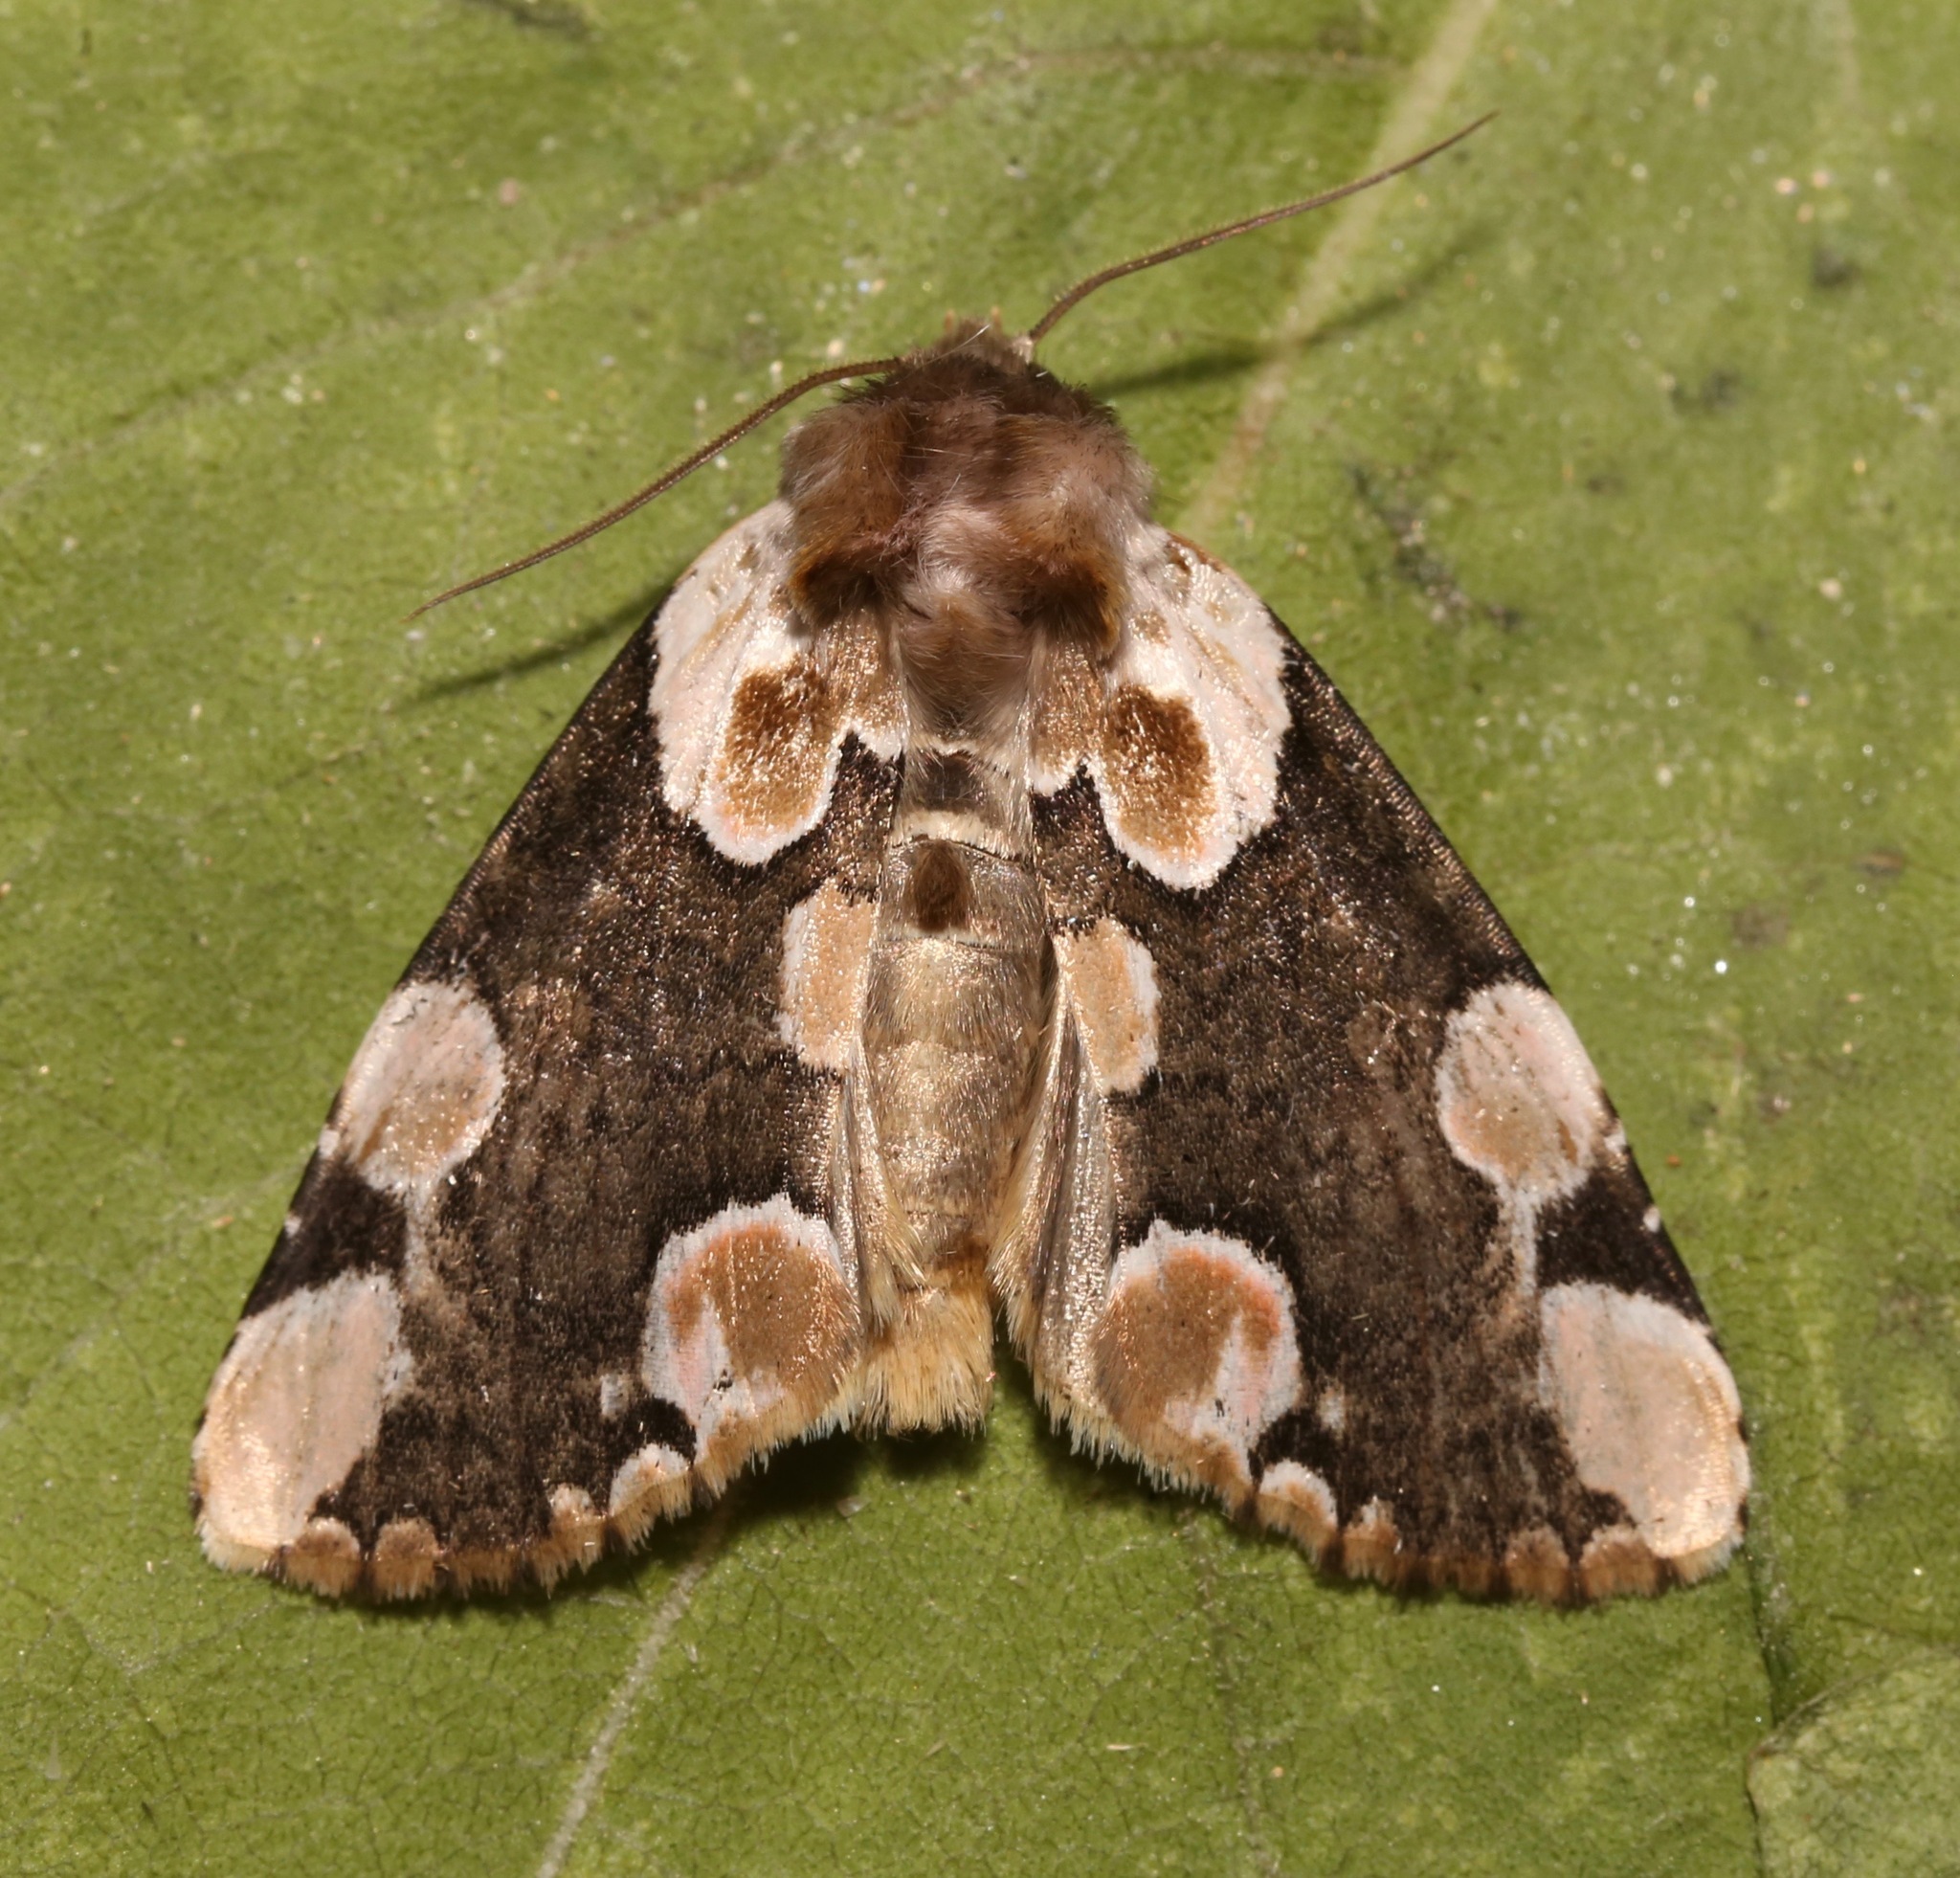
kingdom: Animalia
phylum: Arthropoda
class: Insecta
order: Lepidoptera
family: Drepanidae
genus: Thyatira
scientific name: Thyatira mexicana
